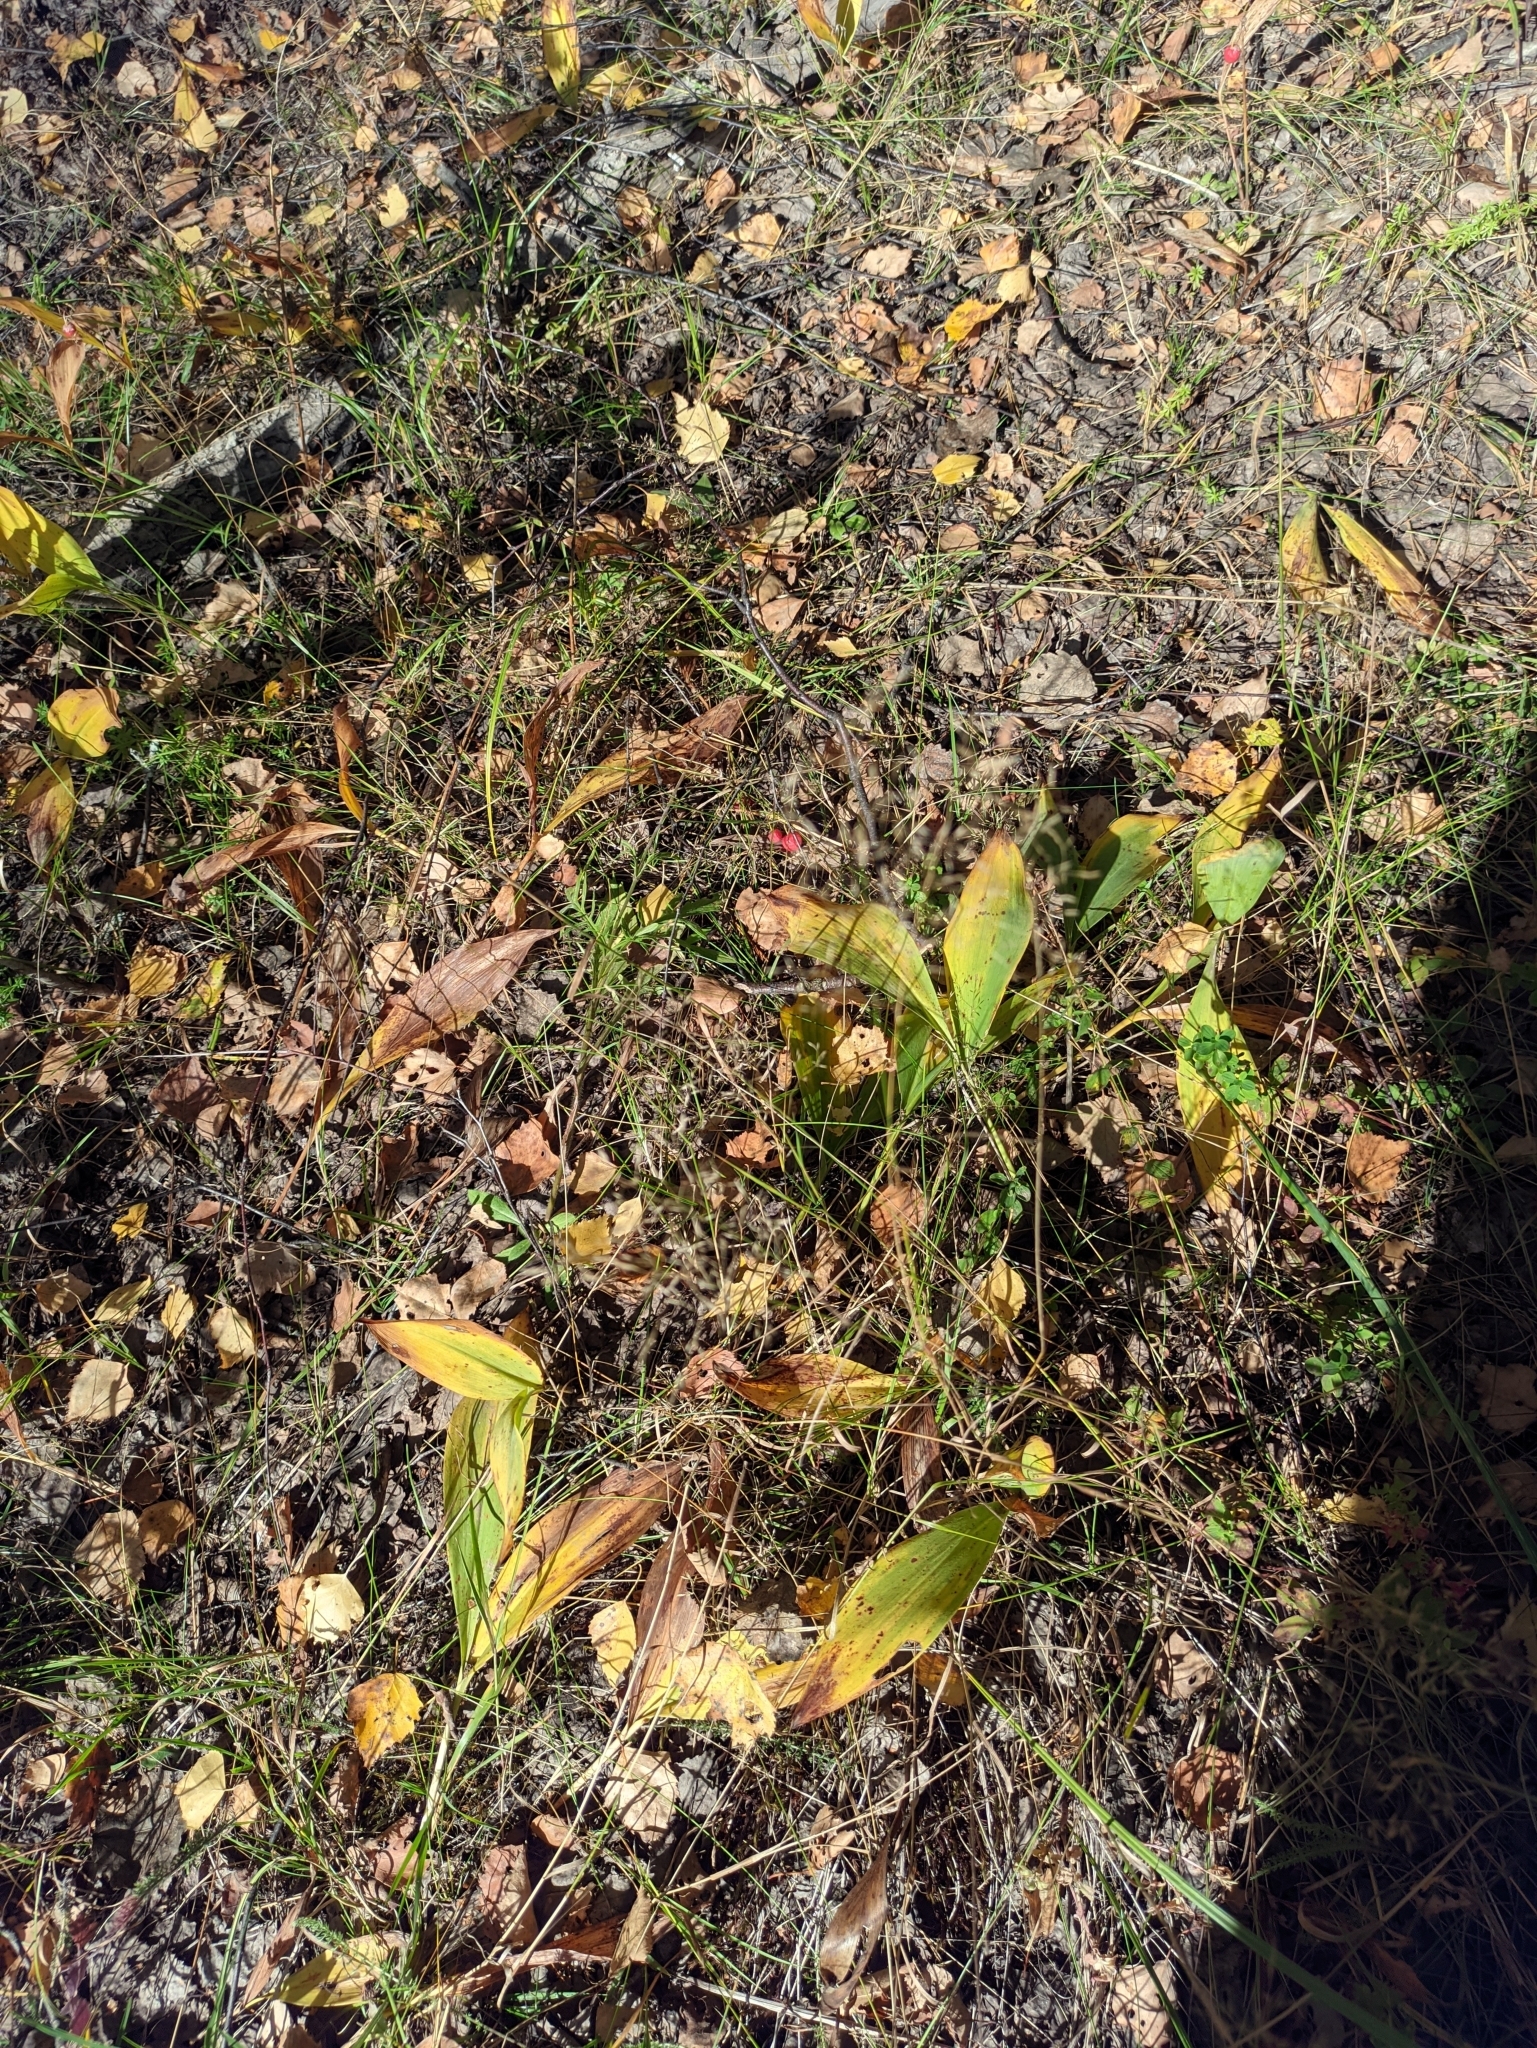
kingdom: Plantae
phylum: Tracheophyta
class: Liliopsida
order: Asparagales
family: Asparagaceae
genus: Convallaria
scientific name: Convallaria majalis
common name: Lily-of-the-valley
